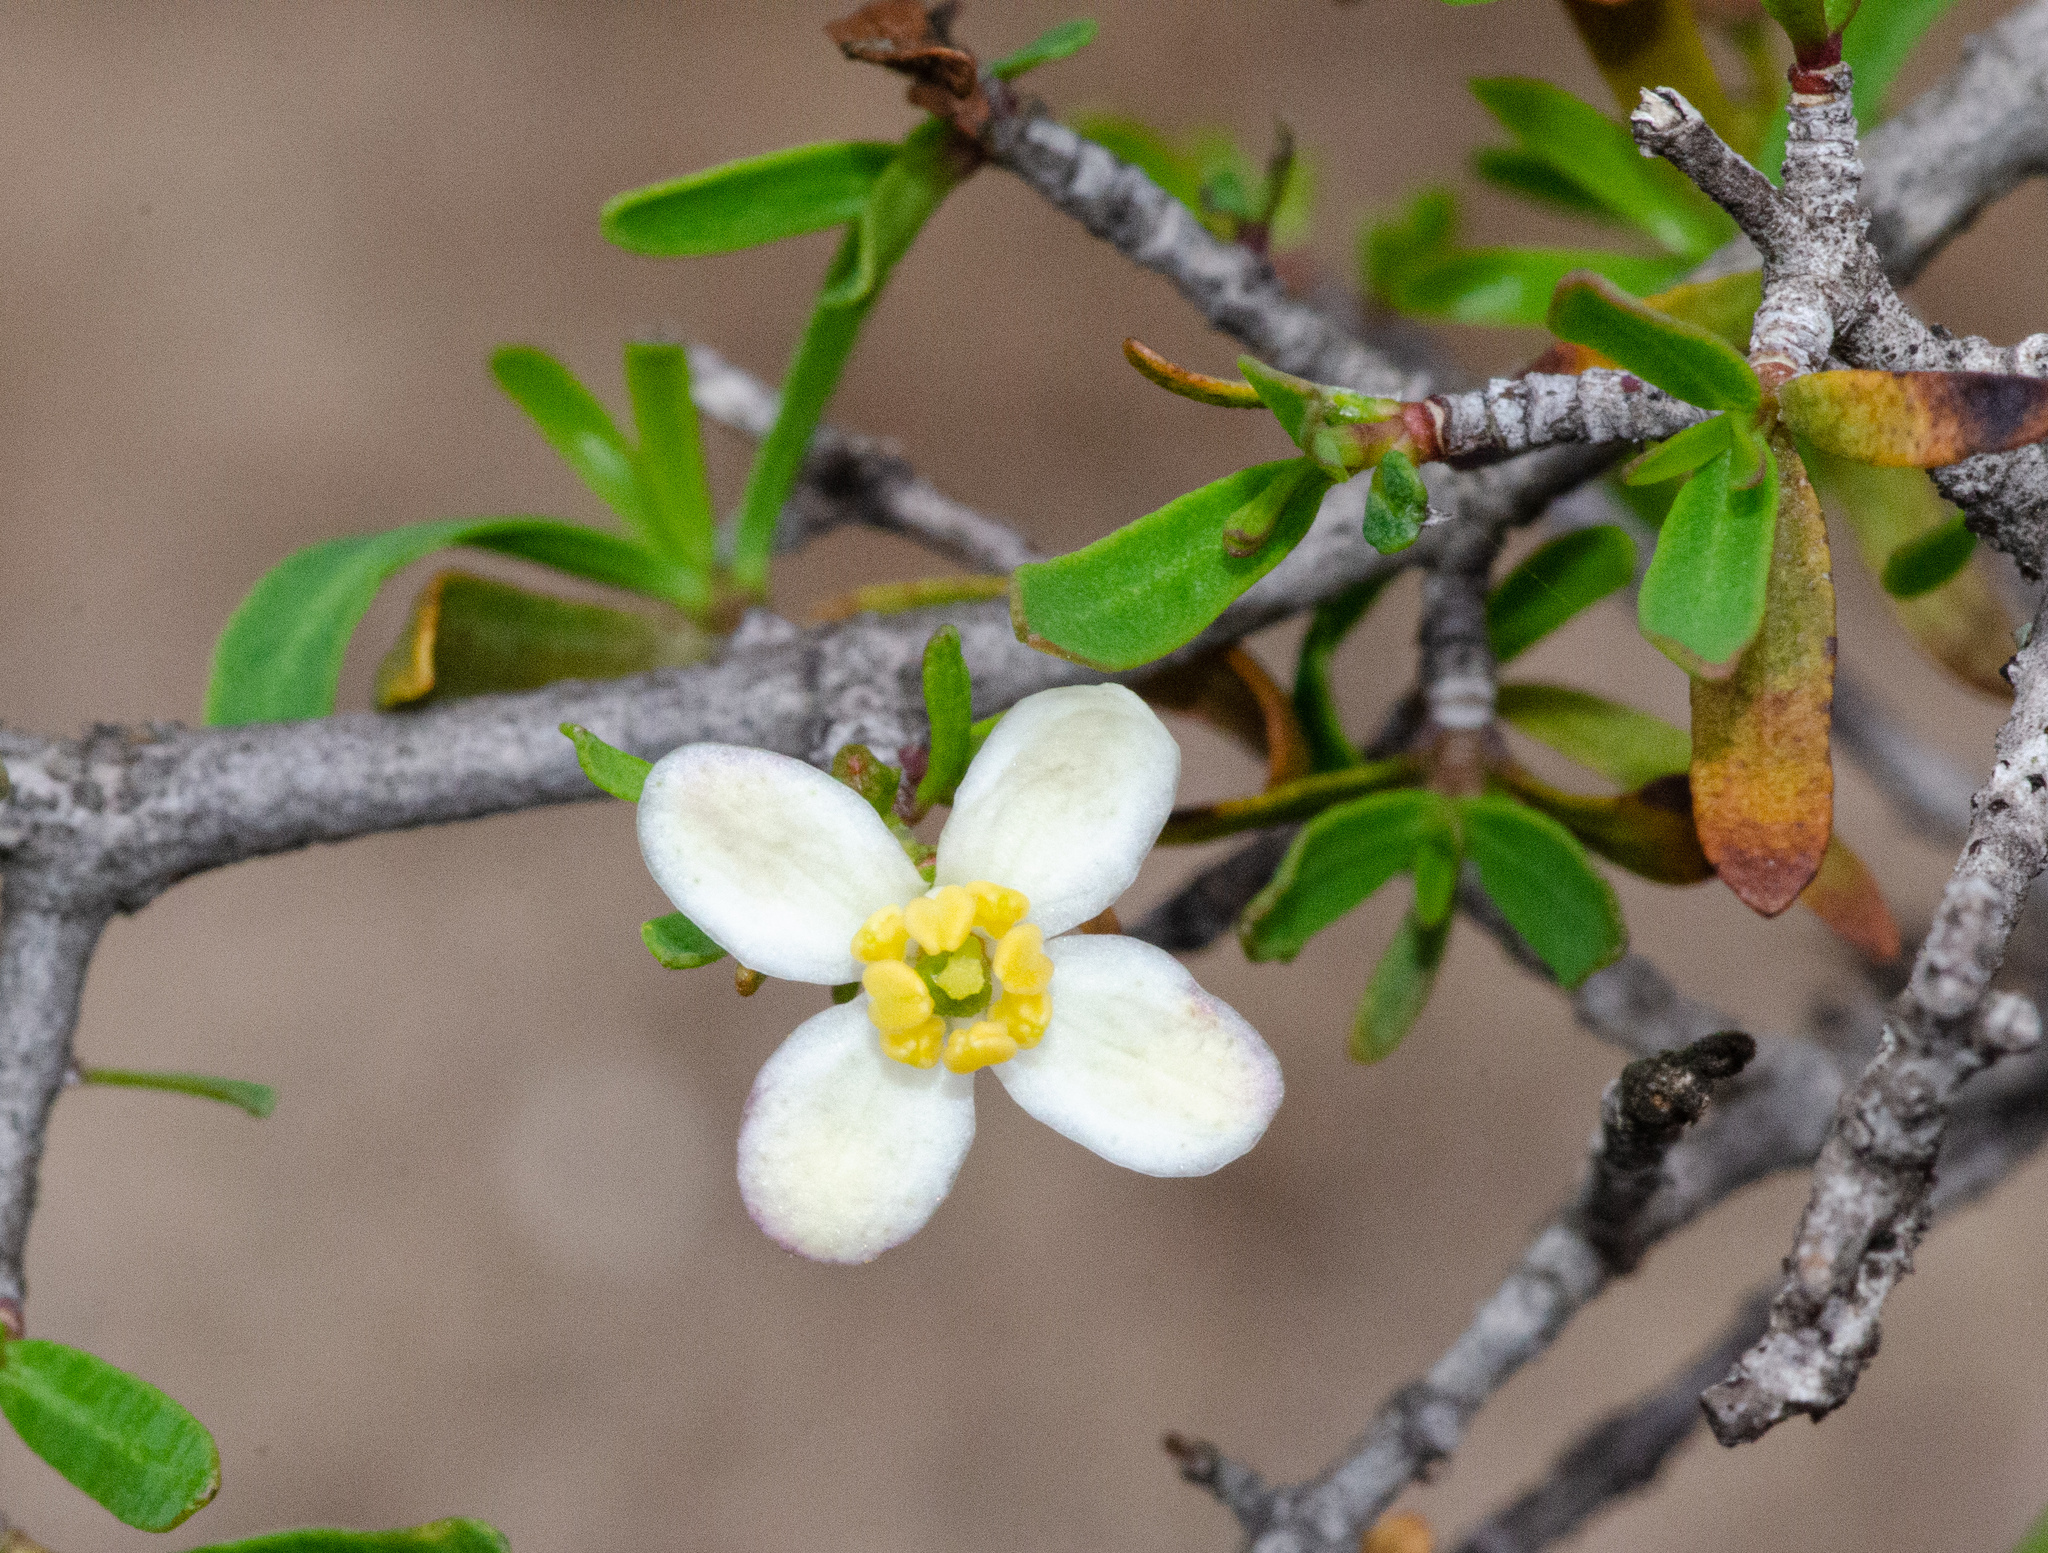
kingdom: Plantae
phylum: Tracheophyta
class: Magnoliopsida
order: Sapindales
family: Rutaceae
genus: Cneoridium
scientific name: Cneoridium dumosum
